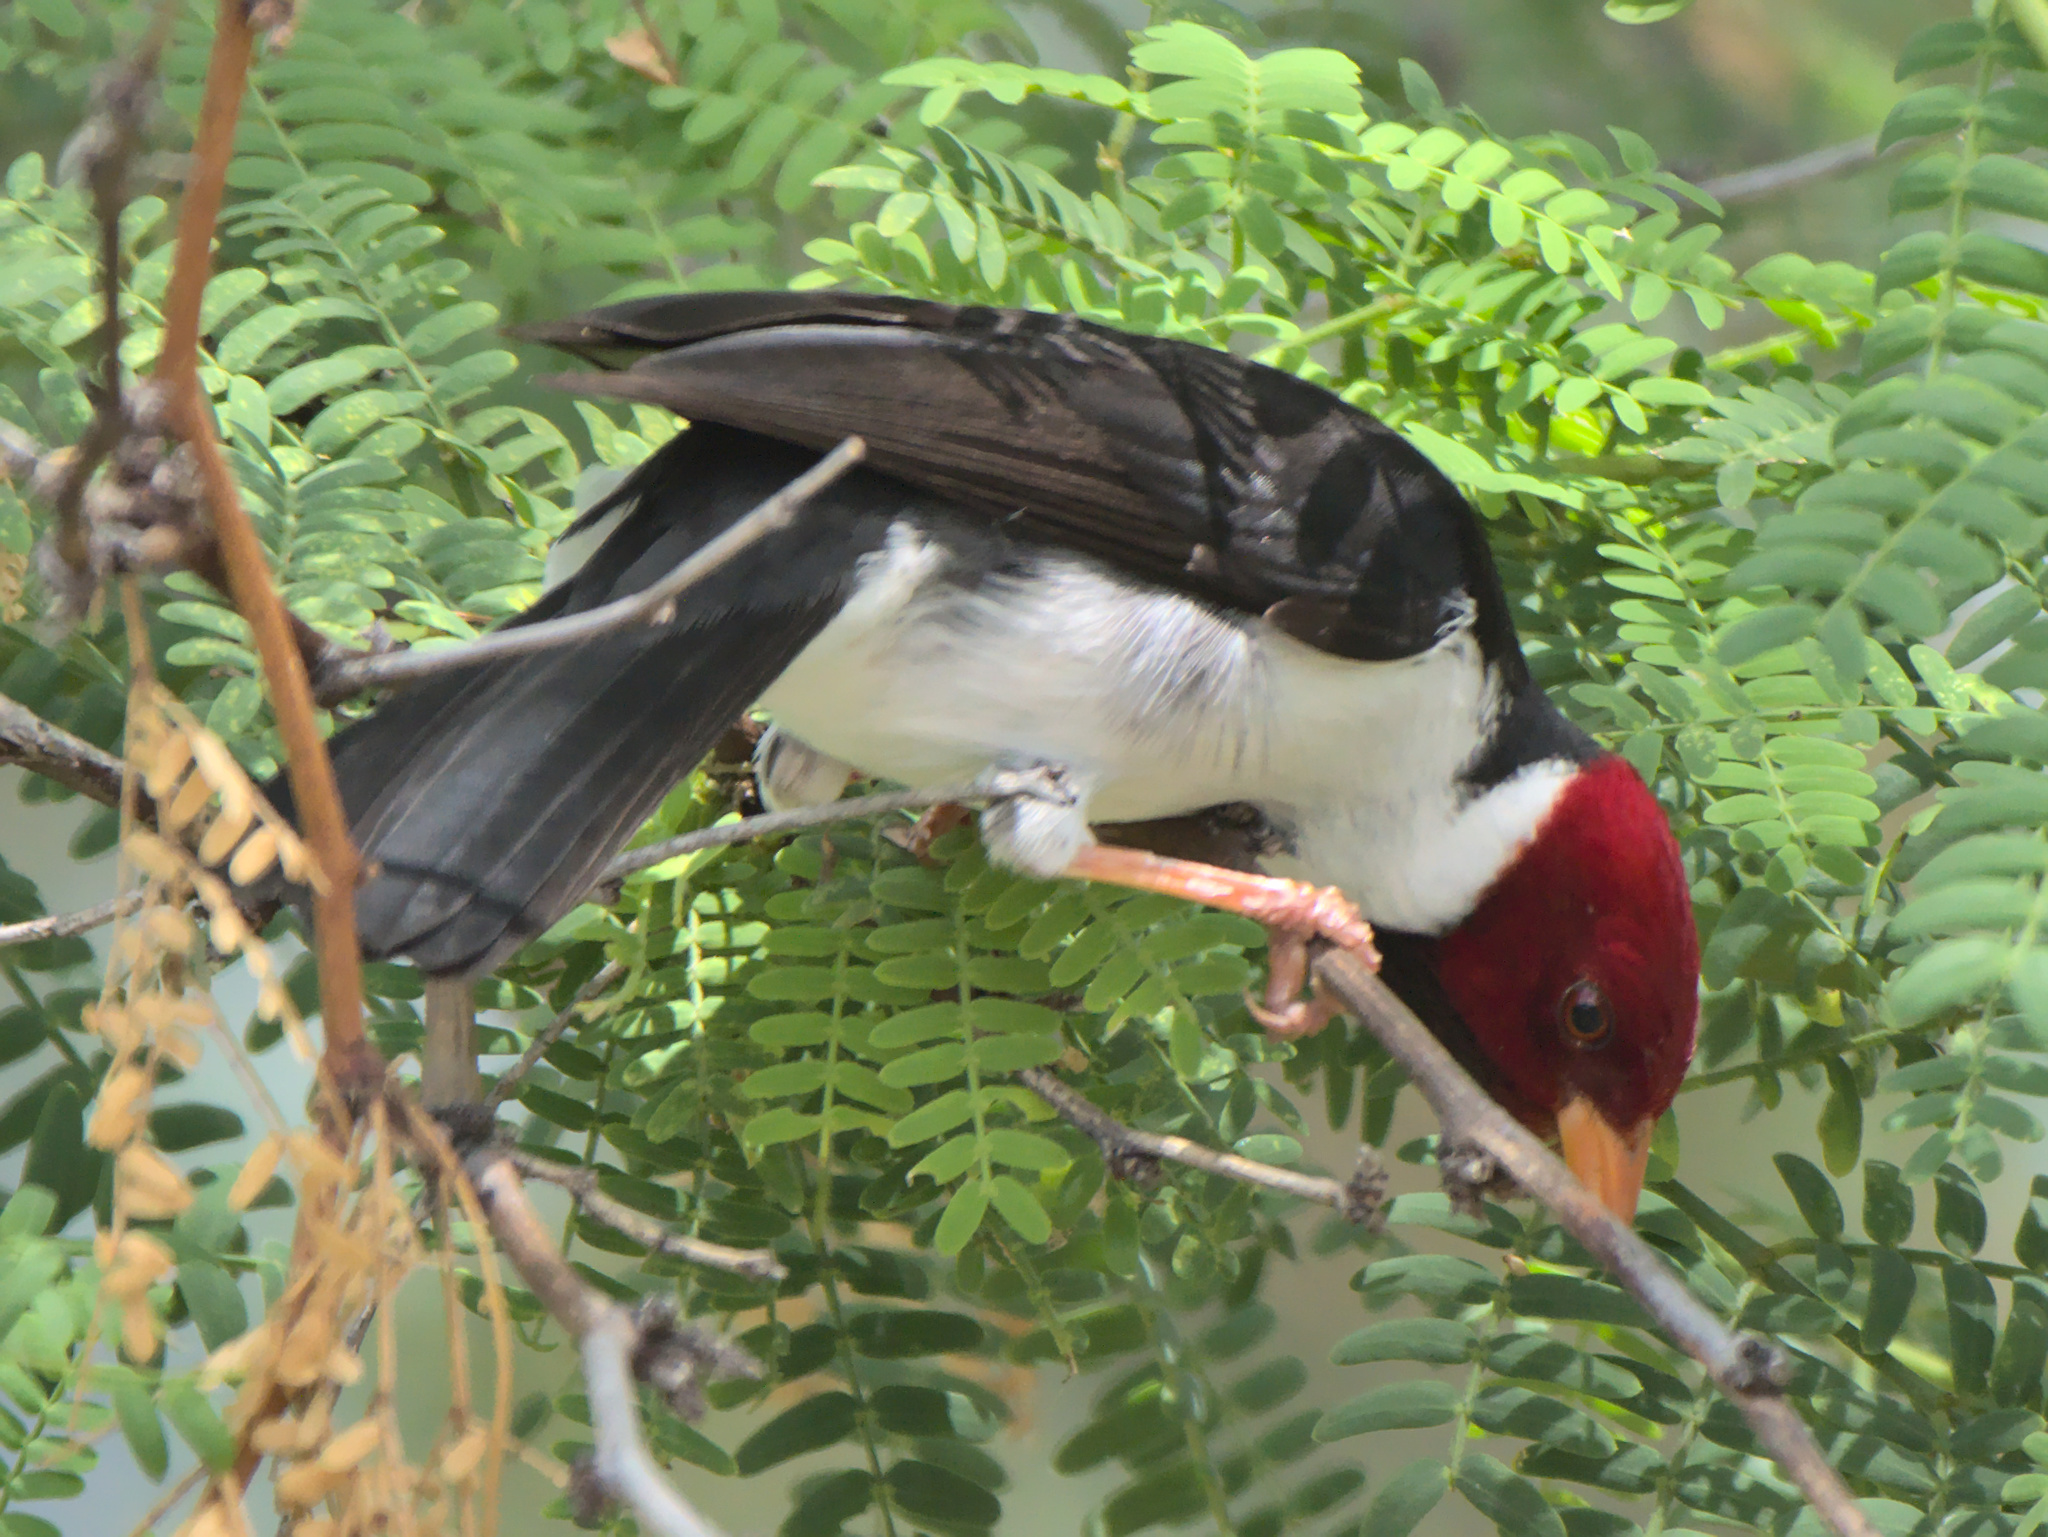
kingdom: Animalia
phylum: Chordata
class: Aves
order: Passeriformes
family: Thraupidae
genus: Paroaria
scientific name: Paroaria capitata
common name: Yellow-billed cardinal
